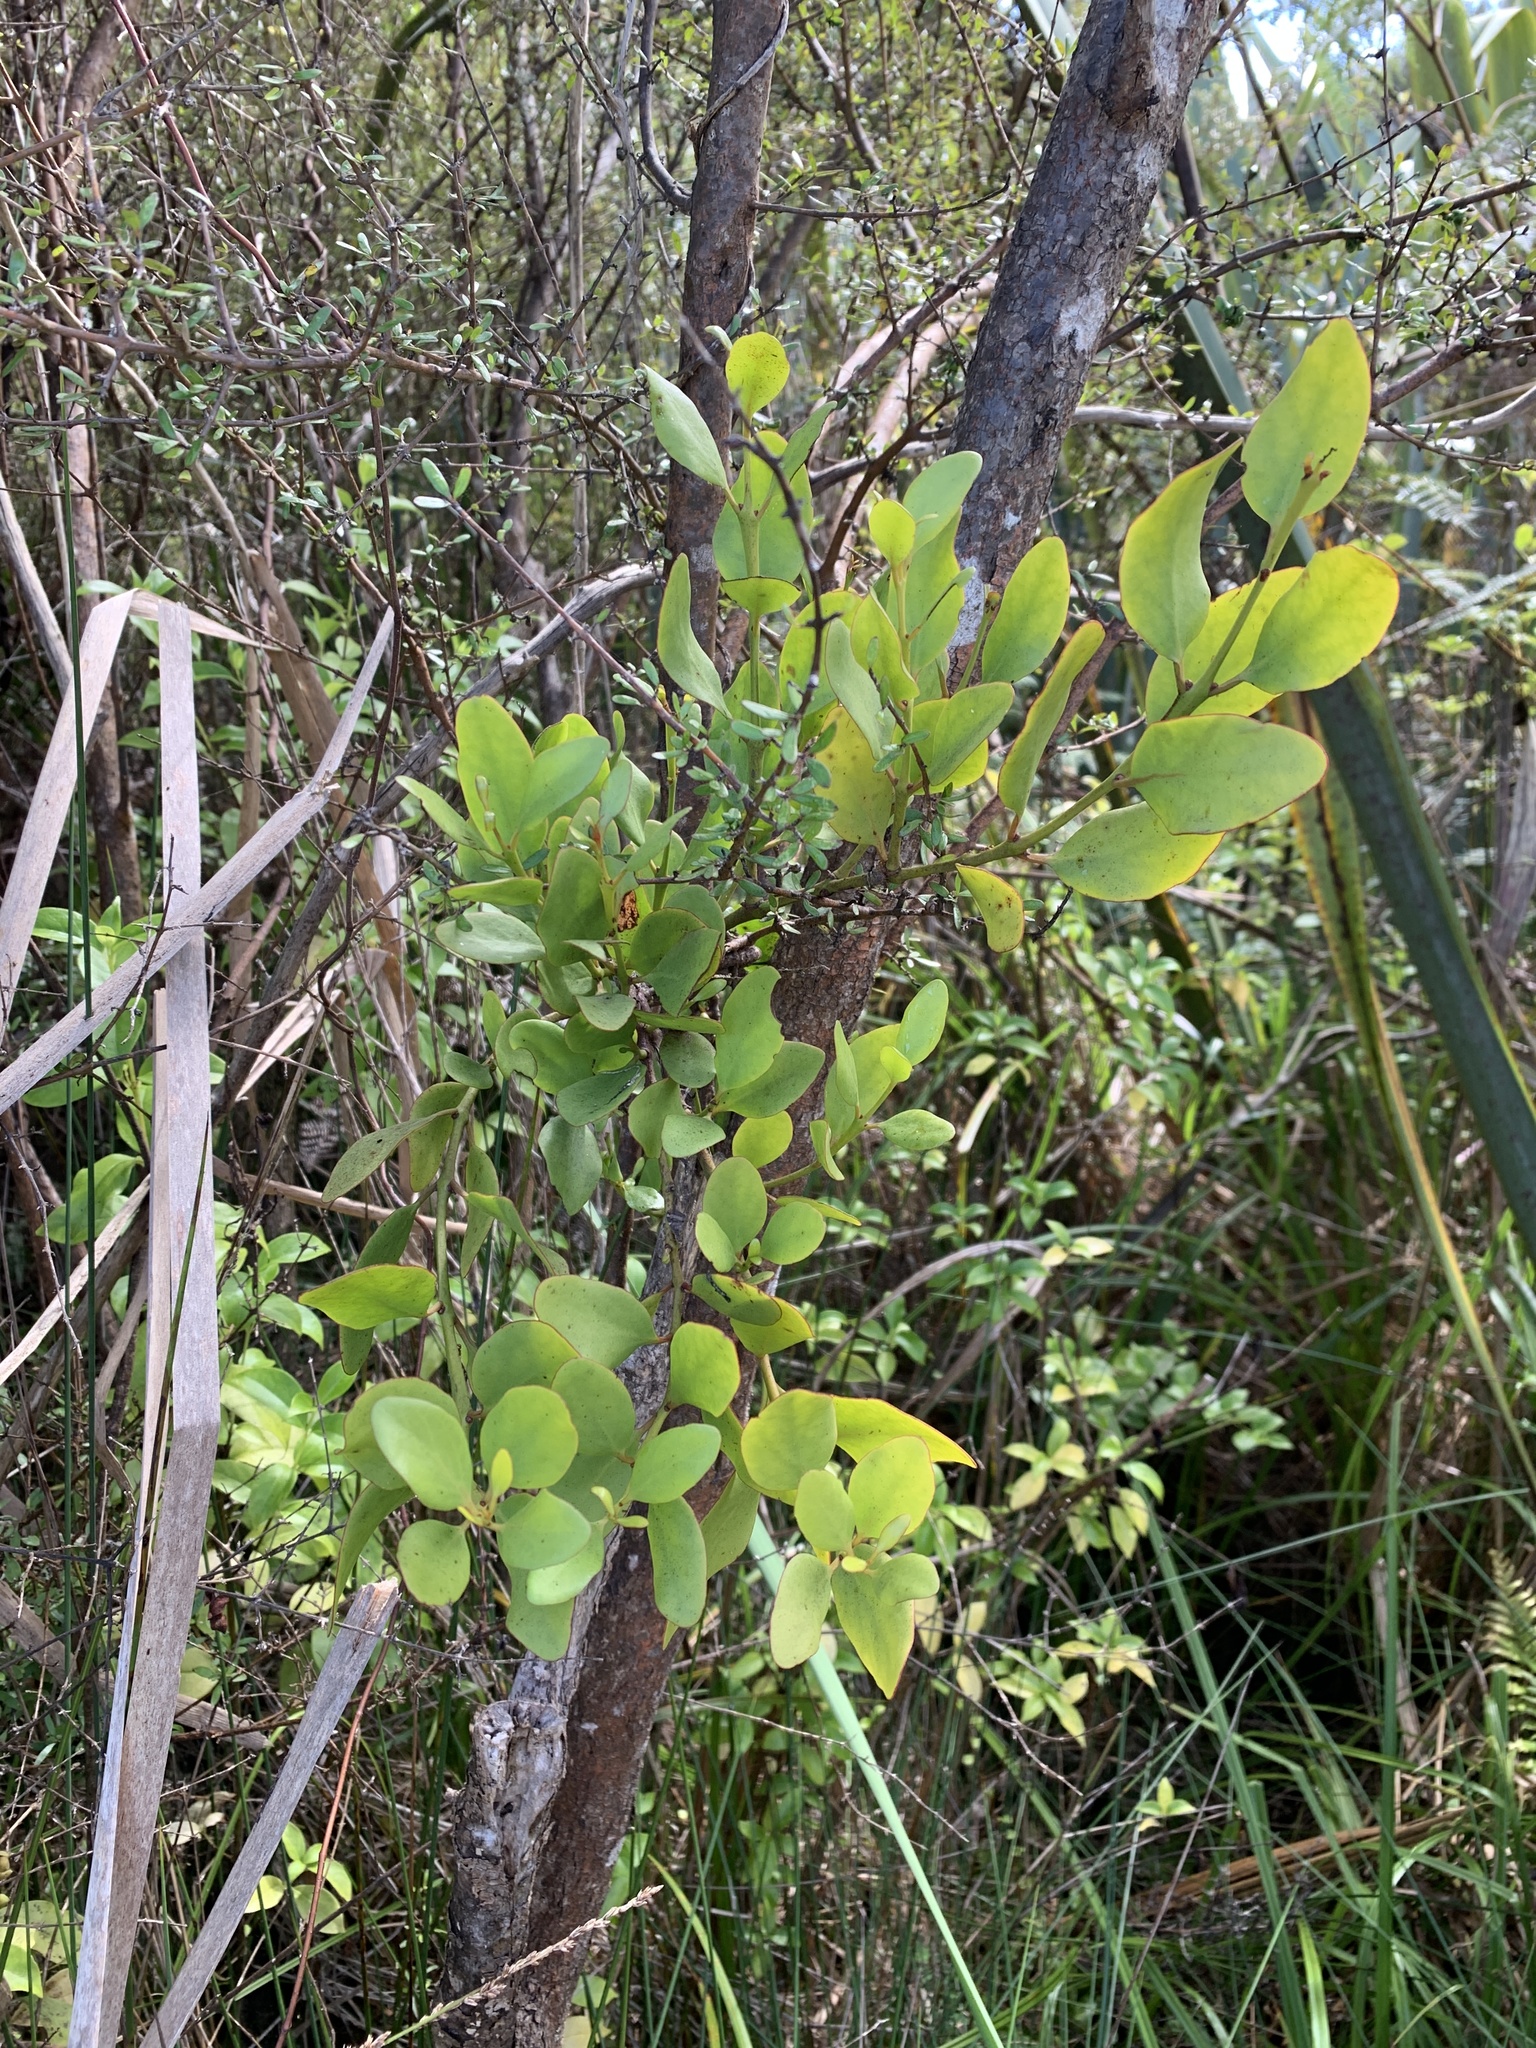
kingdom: Plantae
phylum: Tracheophyta
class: Magnoliopsida
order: Santalales
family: Loranthaceae
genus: Ileostylus
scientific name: Ileostylus micranthus
